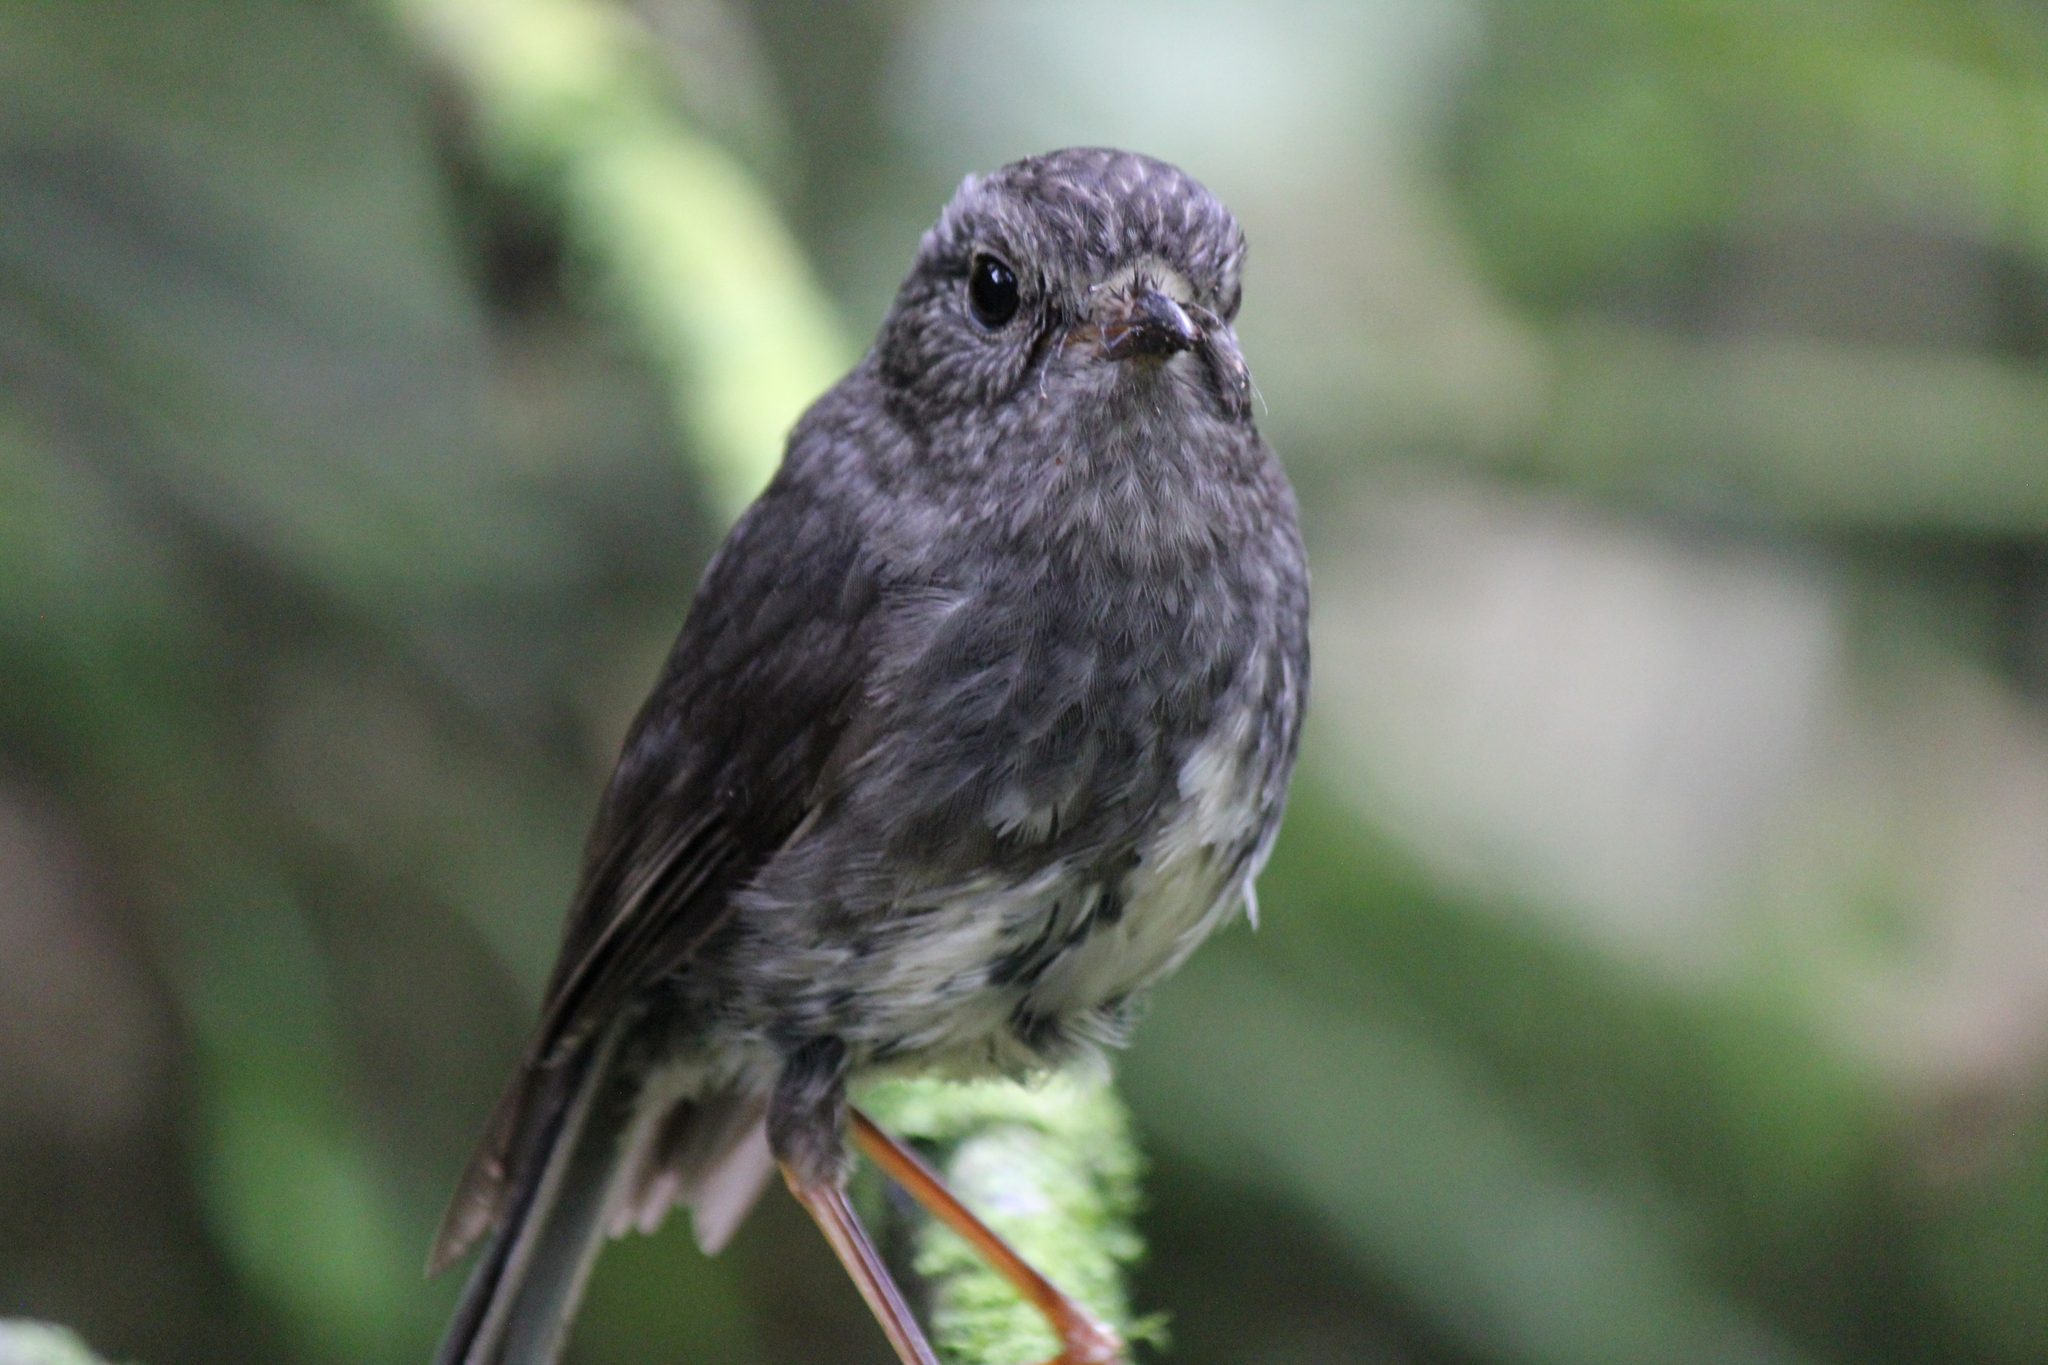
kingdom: Animalia
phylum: Chordata
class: Aves
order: Passeriformes
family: Petroicidae
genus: Petroica
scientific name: Petroica australis
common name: New zealand robin
